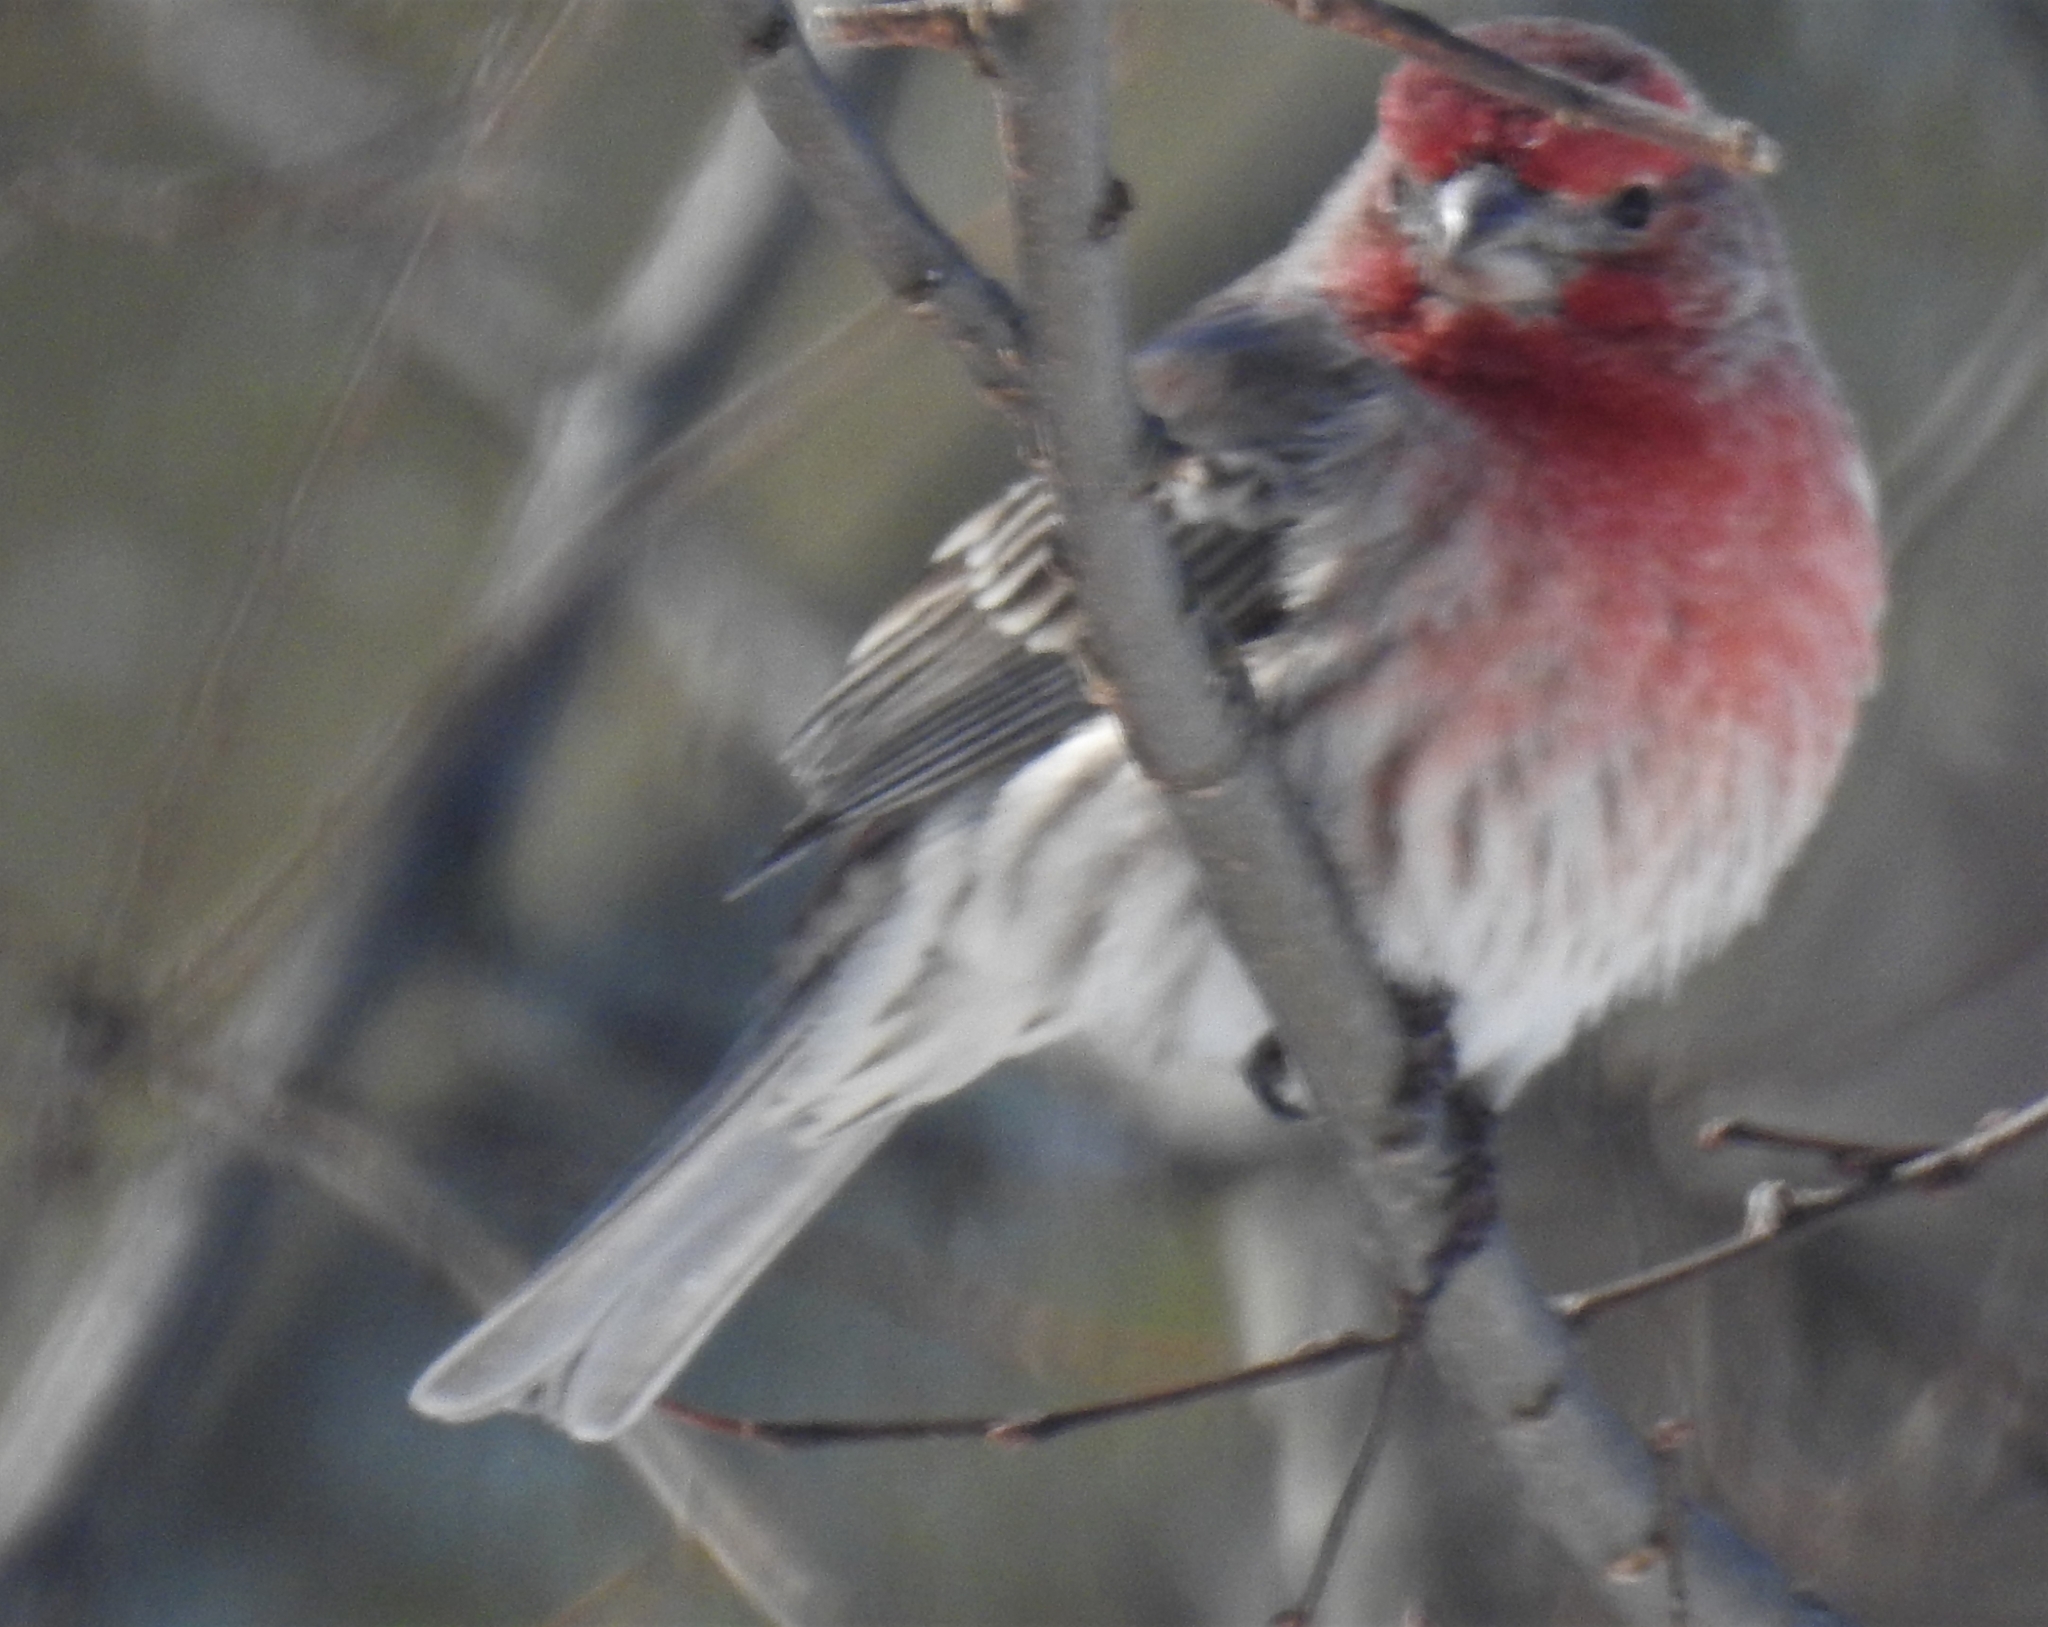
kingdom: Animalia
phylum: Chordata
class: Aves
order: Passeriformes
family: Fringillidae
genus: Haemorhous
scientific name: Haemorhous mexicanus
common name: House finch
